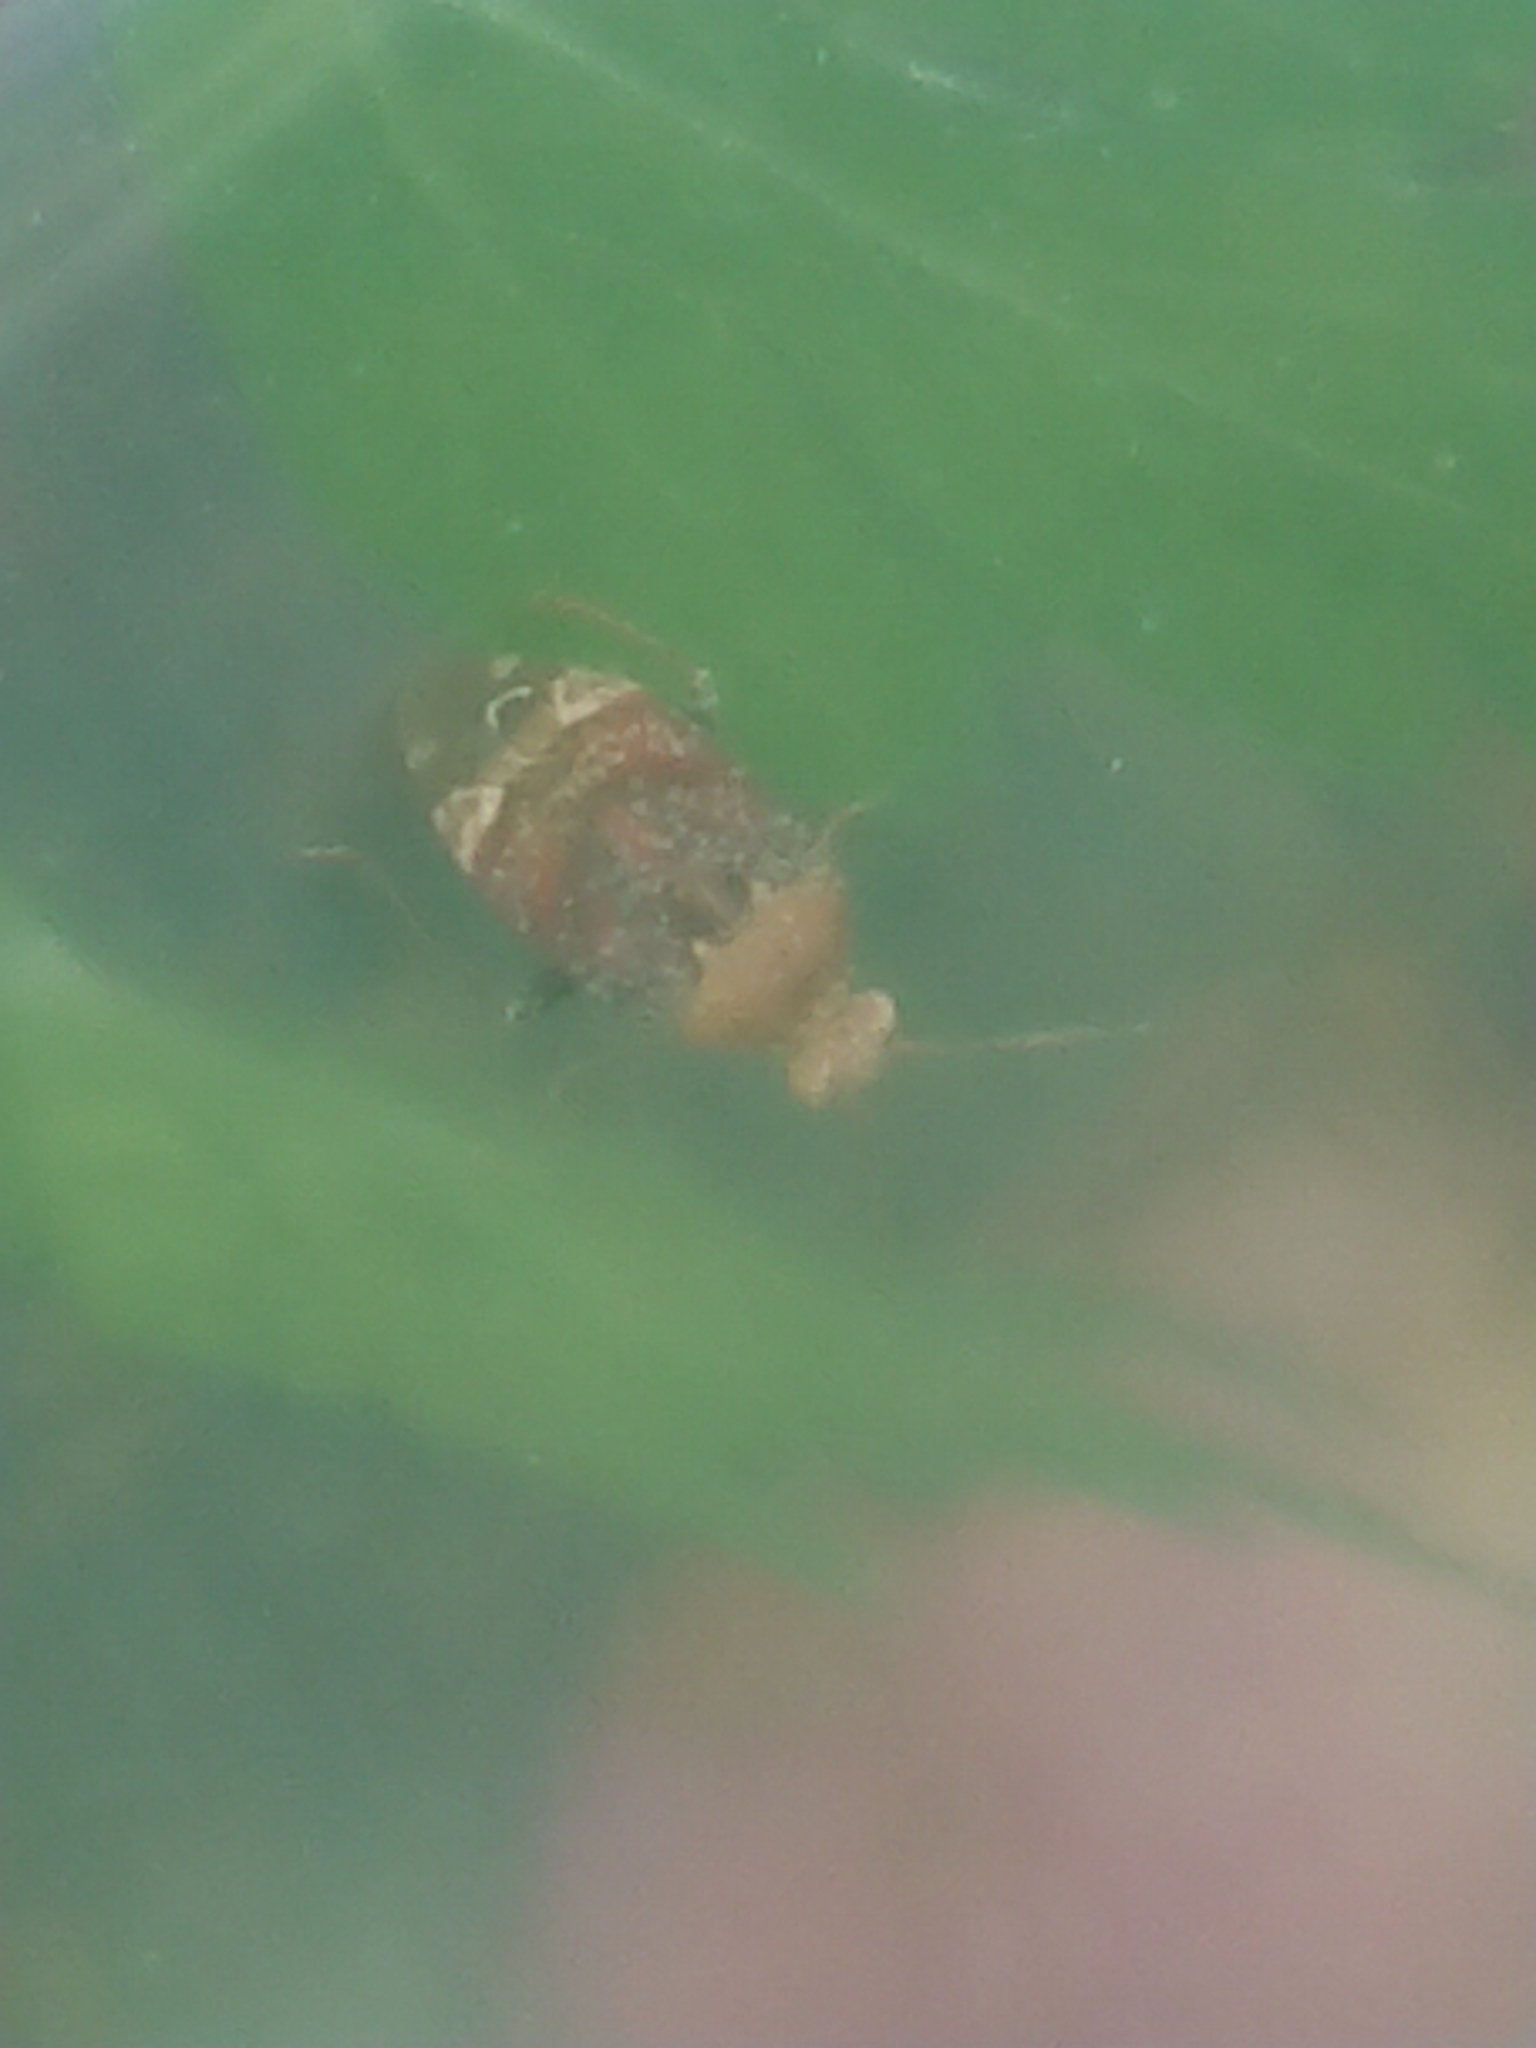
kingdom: Animalia
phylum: Arthropoda
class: Insecta
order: Hemiptera
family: Miridae
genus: Wekamiris
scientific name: Wekamiris auropilosus
